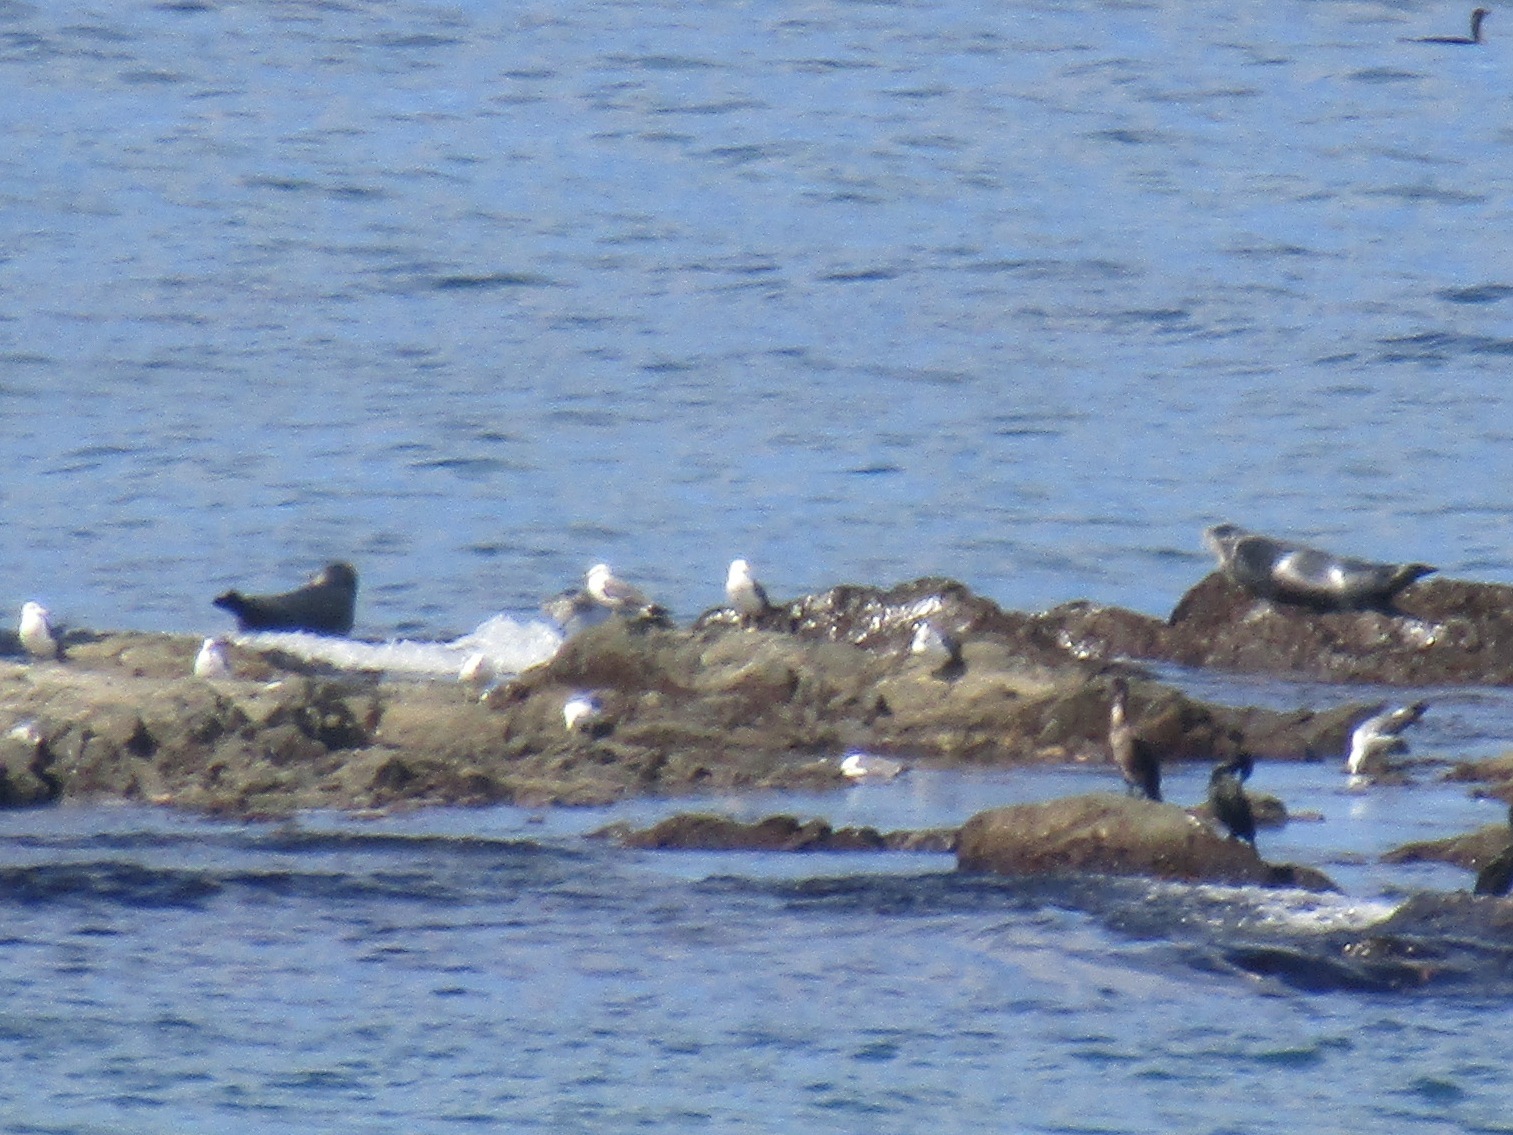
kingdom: Animalia
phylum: Chordata
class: Mammalia
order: Carnivora
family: Phocidae
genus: Phoca
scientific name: Phoca vitulina
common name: Harbor seal
